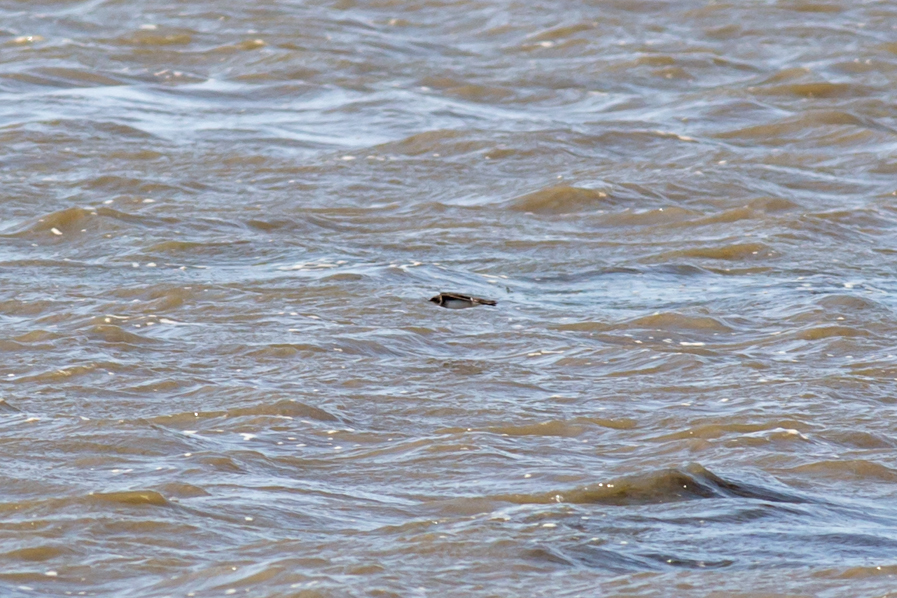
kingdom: Animalia
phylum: Chordata
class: Aves
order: Passeriformes
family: Hirundinidae
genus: Riparia
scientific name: Riparia riparia
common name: Sand martin
